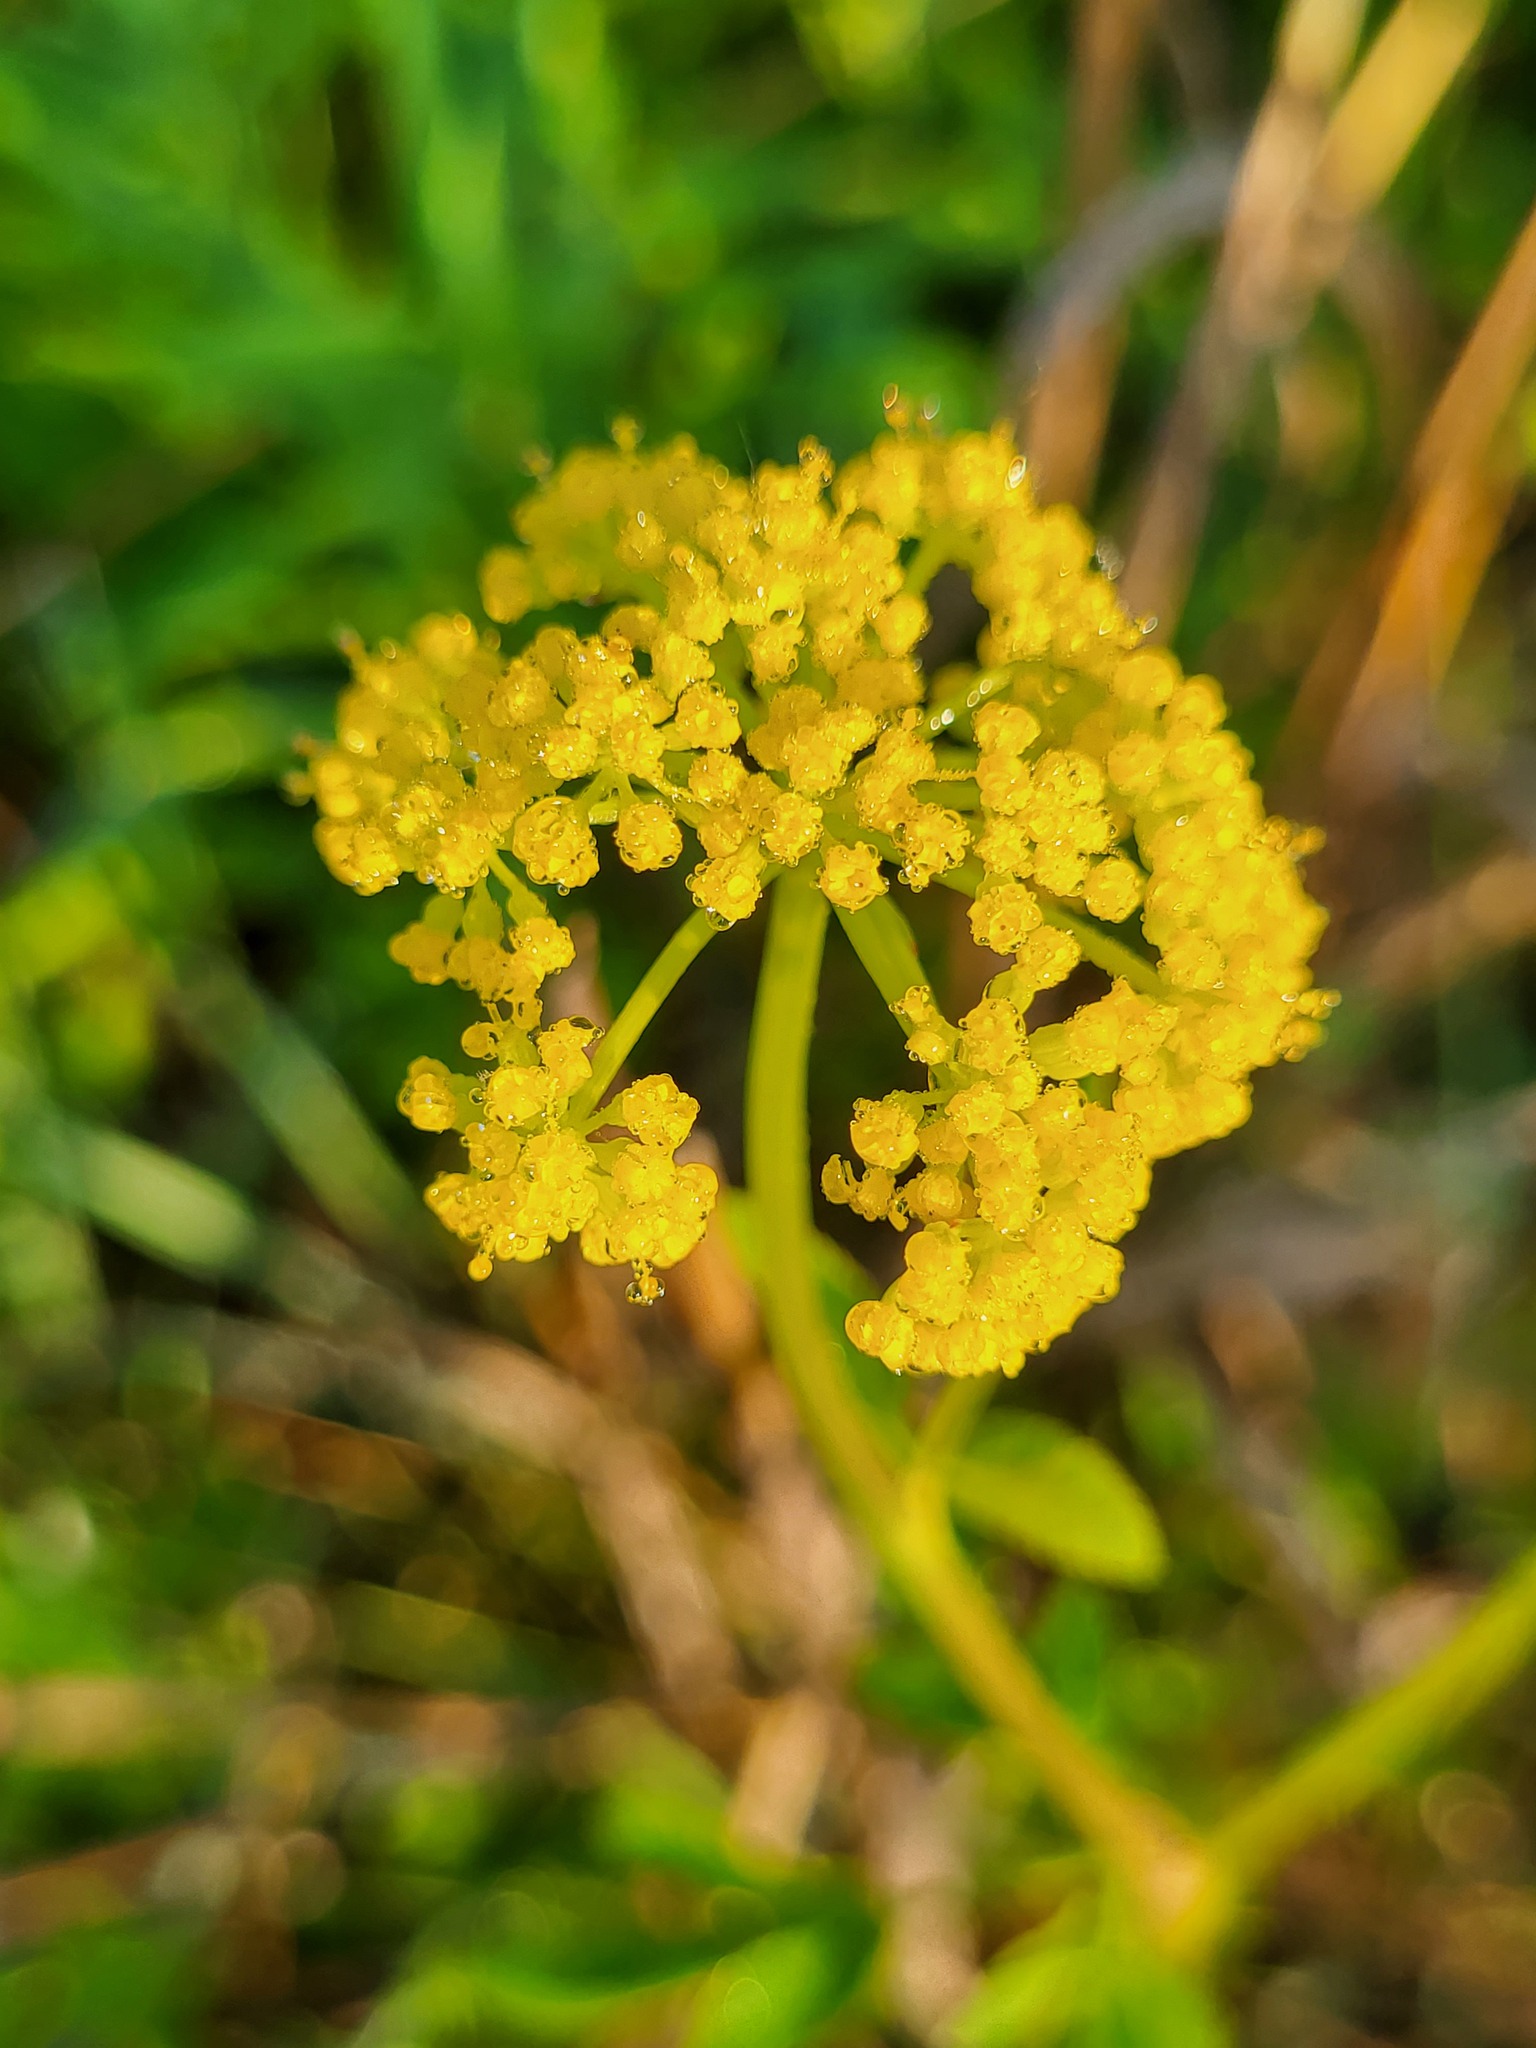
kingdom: Plantae
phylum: Tracheophyta
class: Magnoliopsida
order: Apiales
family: Apiaceae
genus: Zizia
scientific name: Zizia aurea
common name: Golden alexanders
